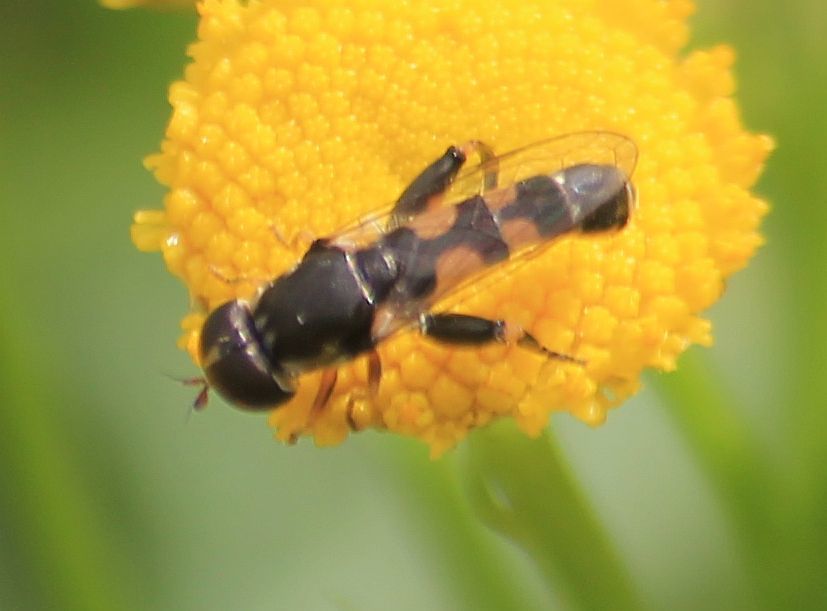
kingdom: Animalia
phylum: Arthropoda
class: Insecta
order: Diptera
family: Syrphidae
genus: Syritta
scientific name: Syritta pipiens
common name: Hover fly
